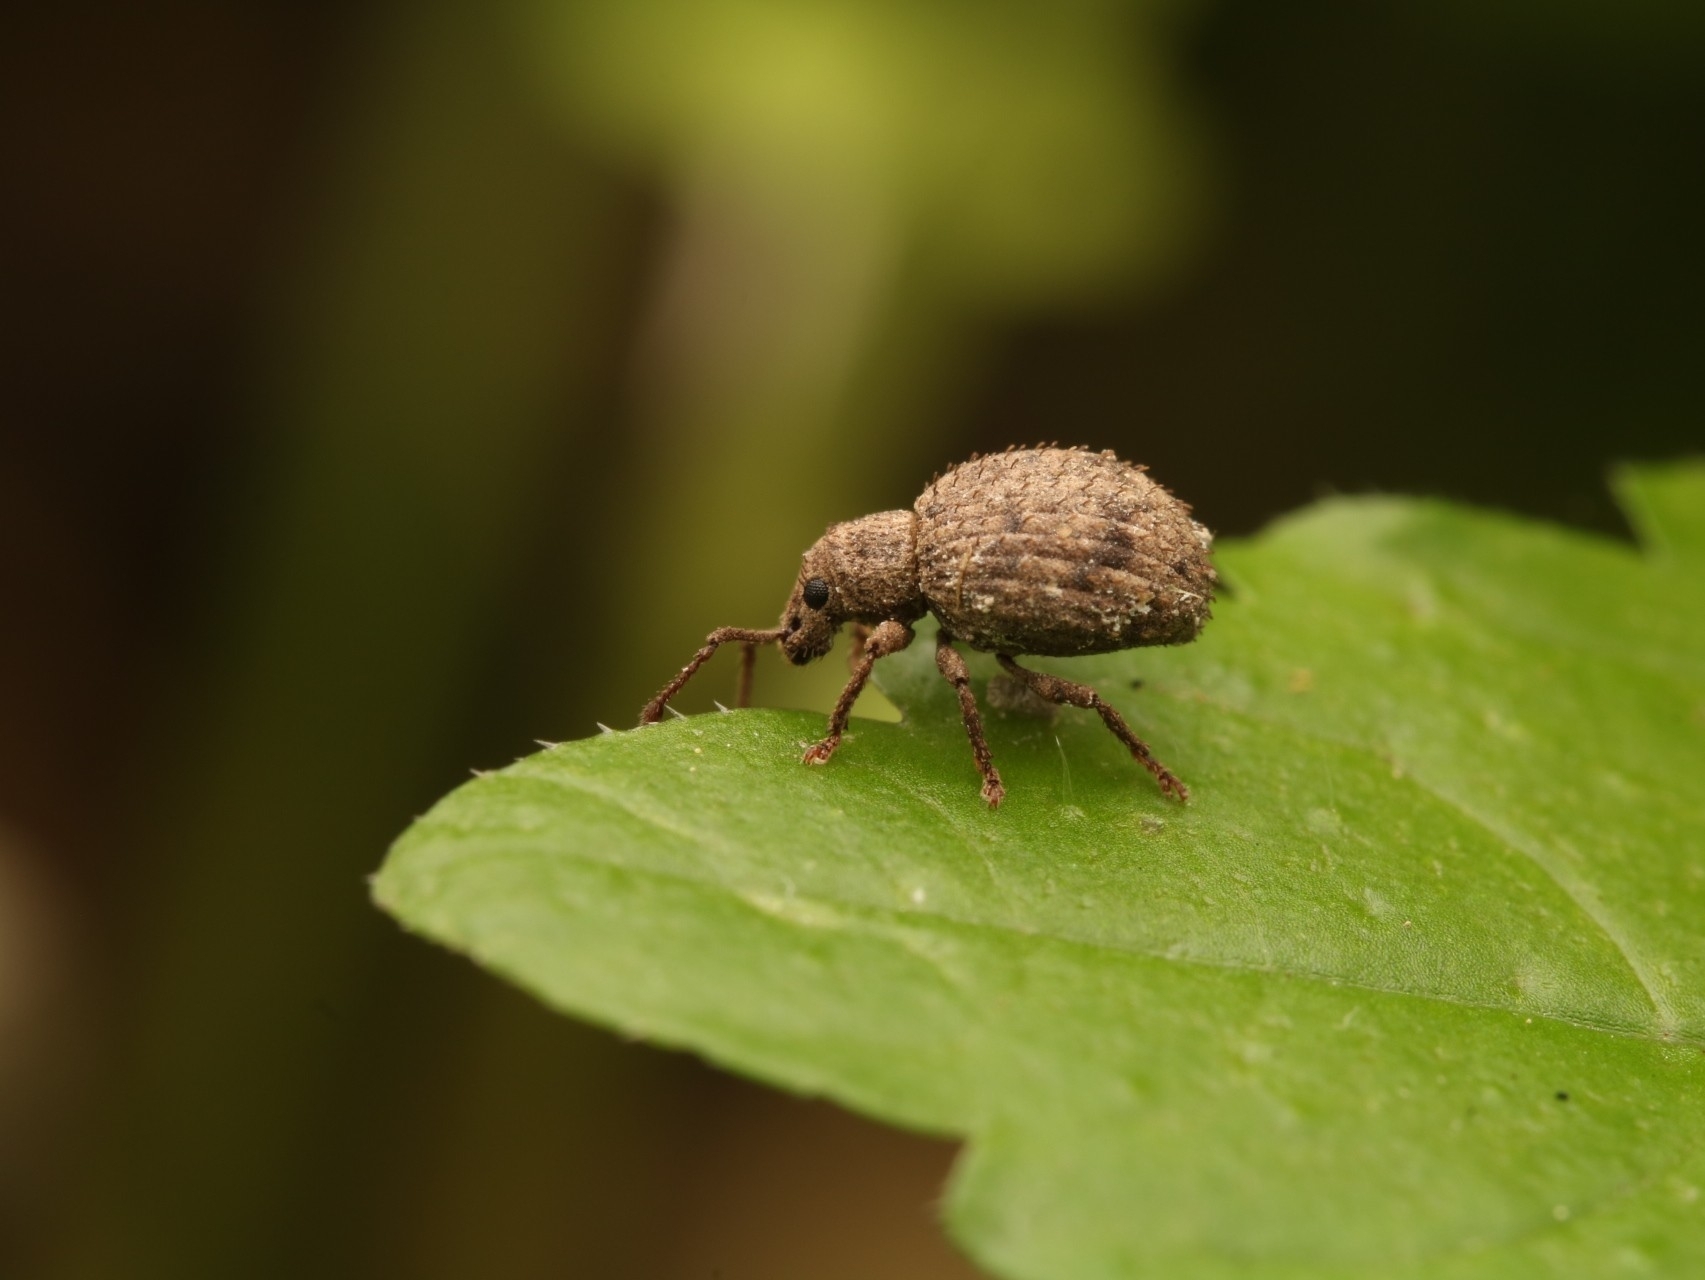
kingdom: Animalia
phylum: Arthropoda
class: Insecta
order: Coleoptera
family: Curculionidae
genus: Myosides
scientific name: Myosides seriehispidus
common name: Broadnosed weevil
